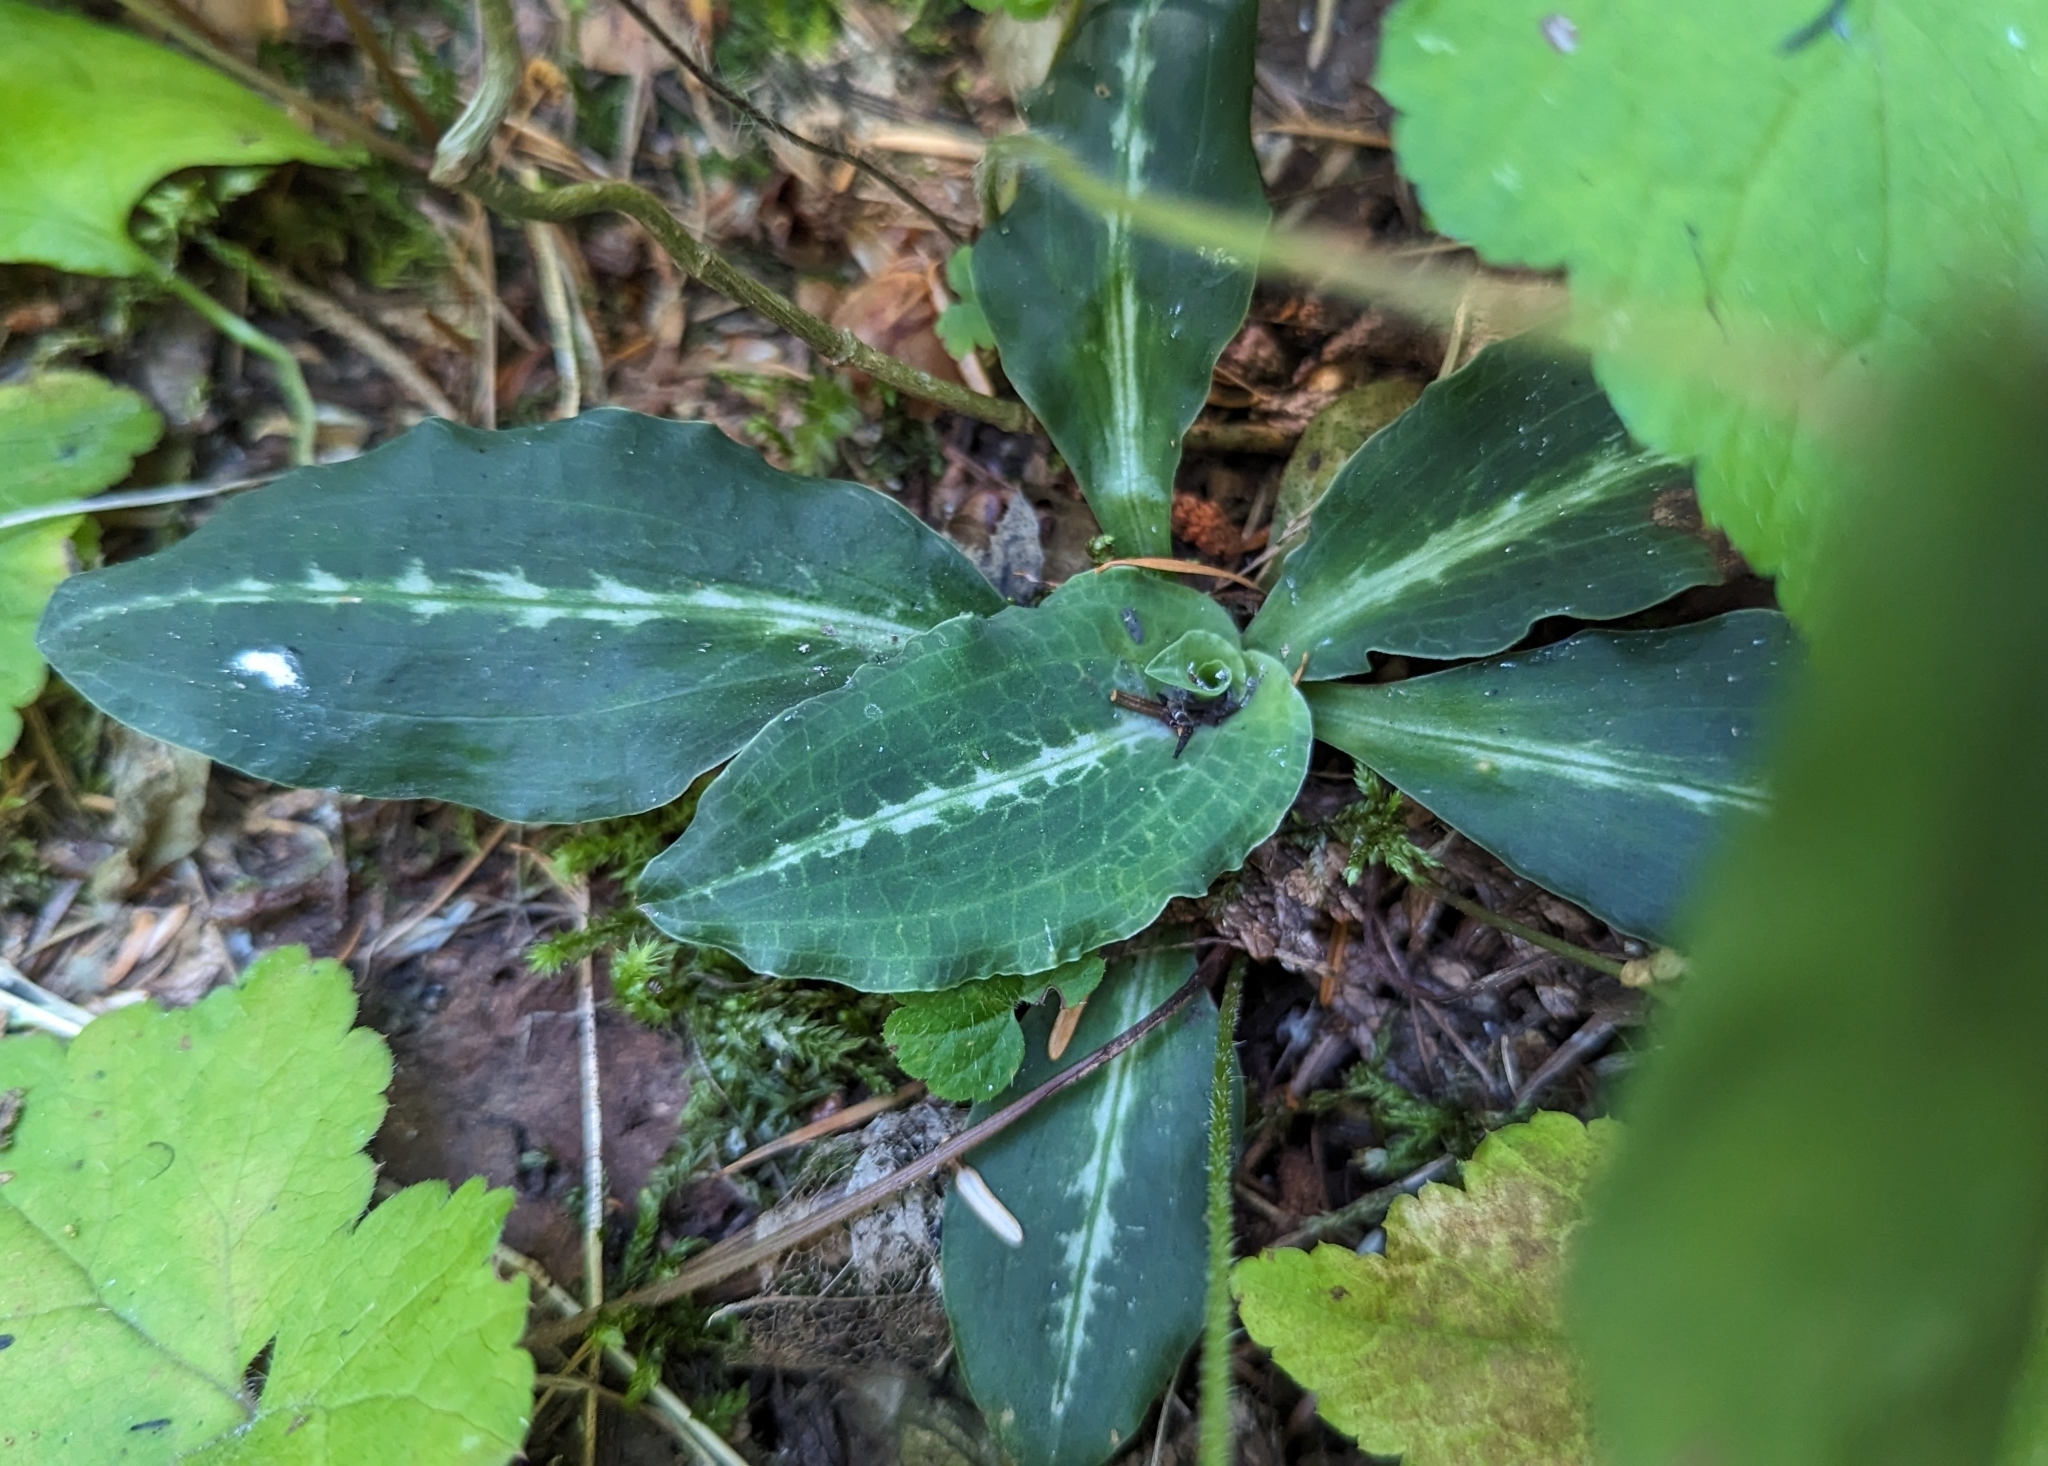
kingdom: Plantae
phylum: Tracheophyta
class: Liliopsida
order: Asparagales
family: Orchidaceae
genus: Goodyera
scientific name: Goodyera oblongifolia
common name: Giant rattlesnake-plantain
